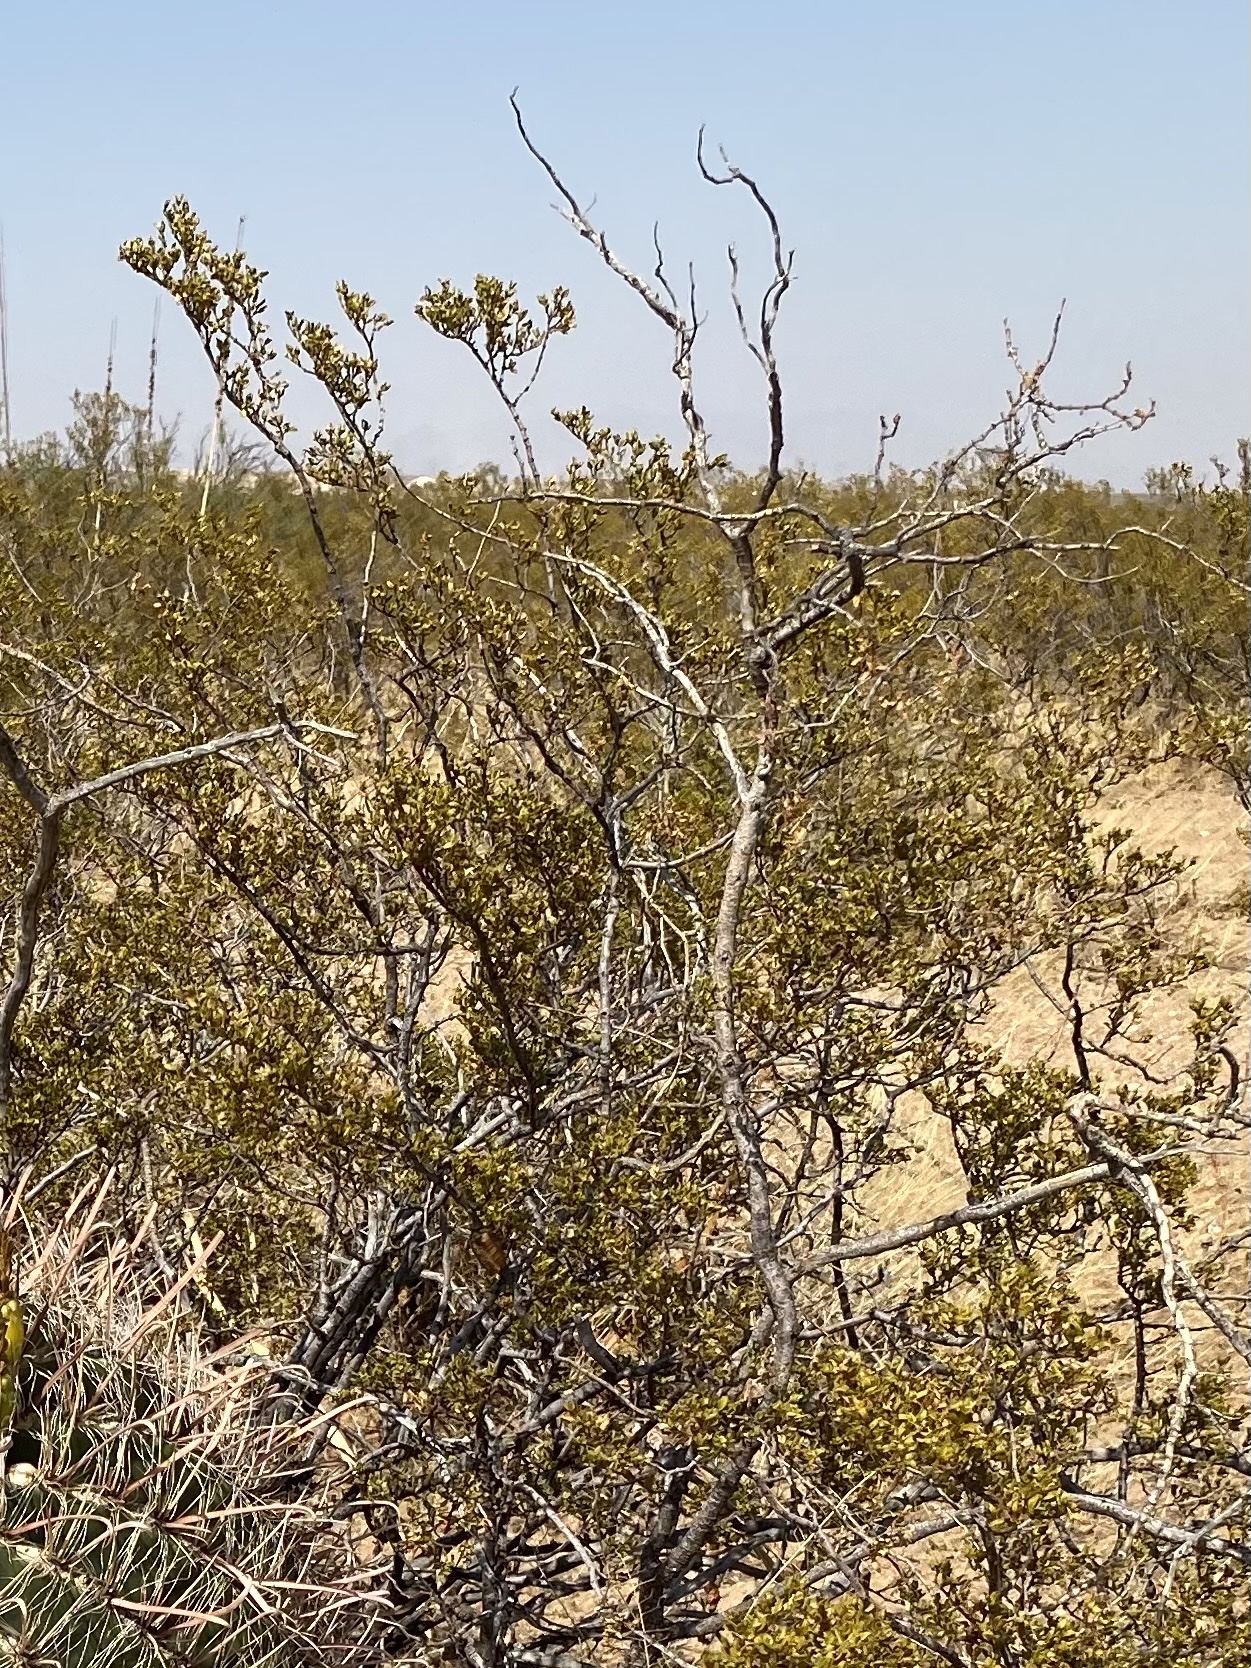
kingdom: Plantae
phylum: Tracheophyta
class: Magnoliopsida
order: Zygophyllales
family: Zygophyllaceae
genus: Larrea
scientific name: Larrea tridentata
